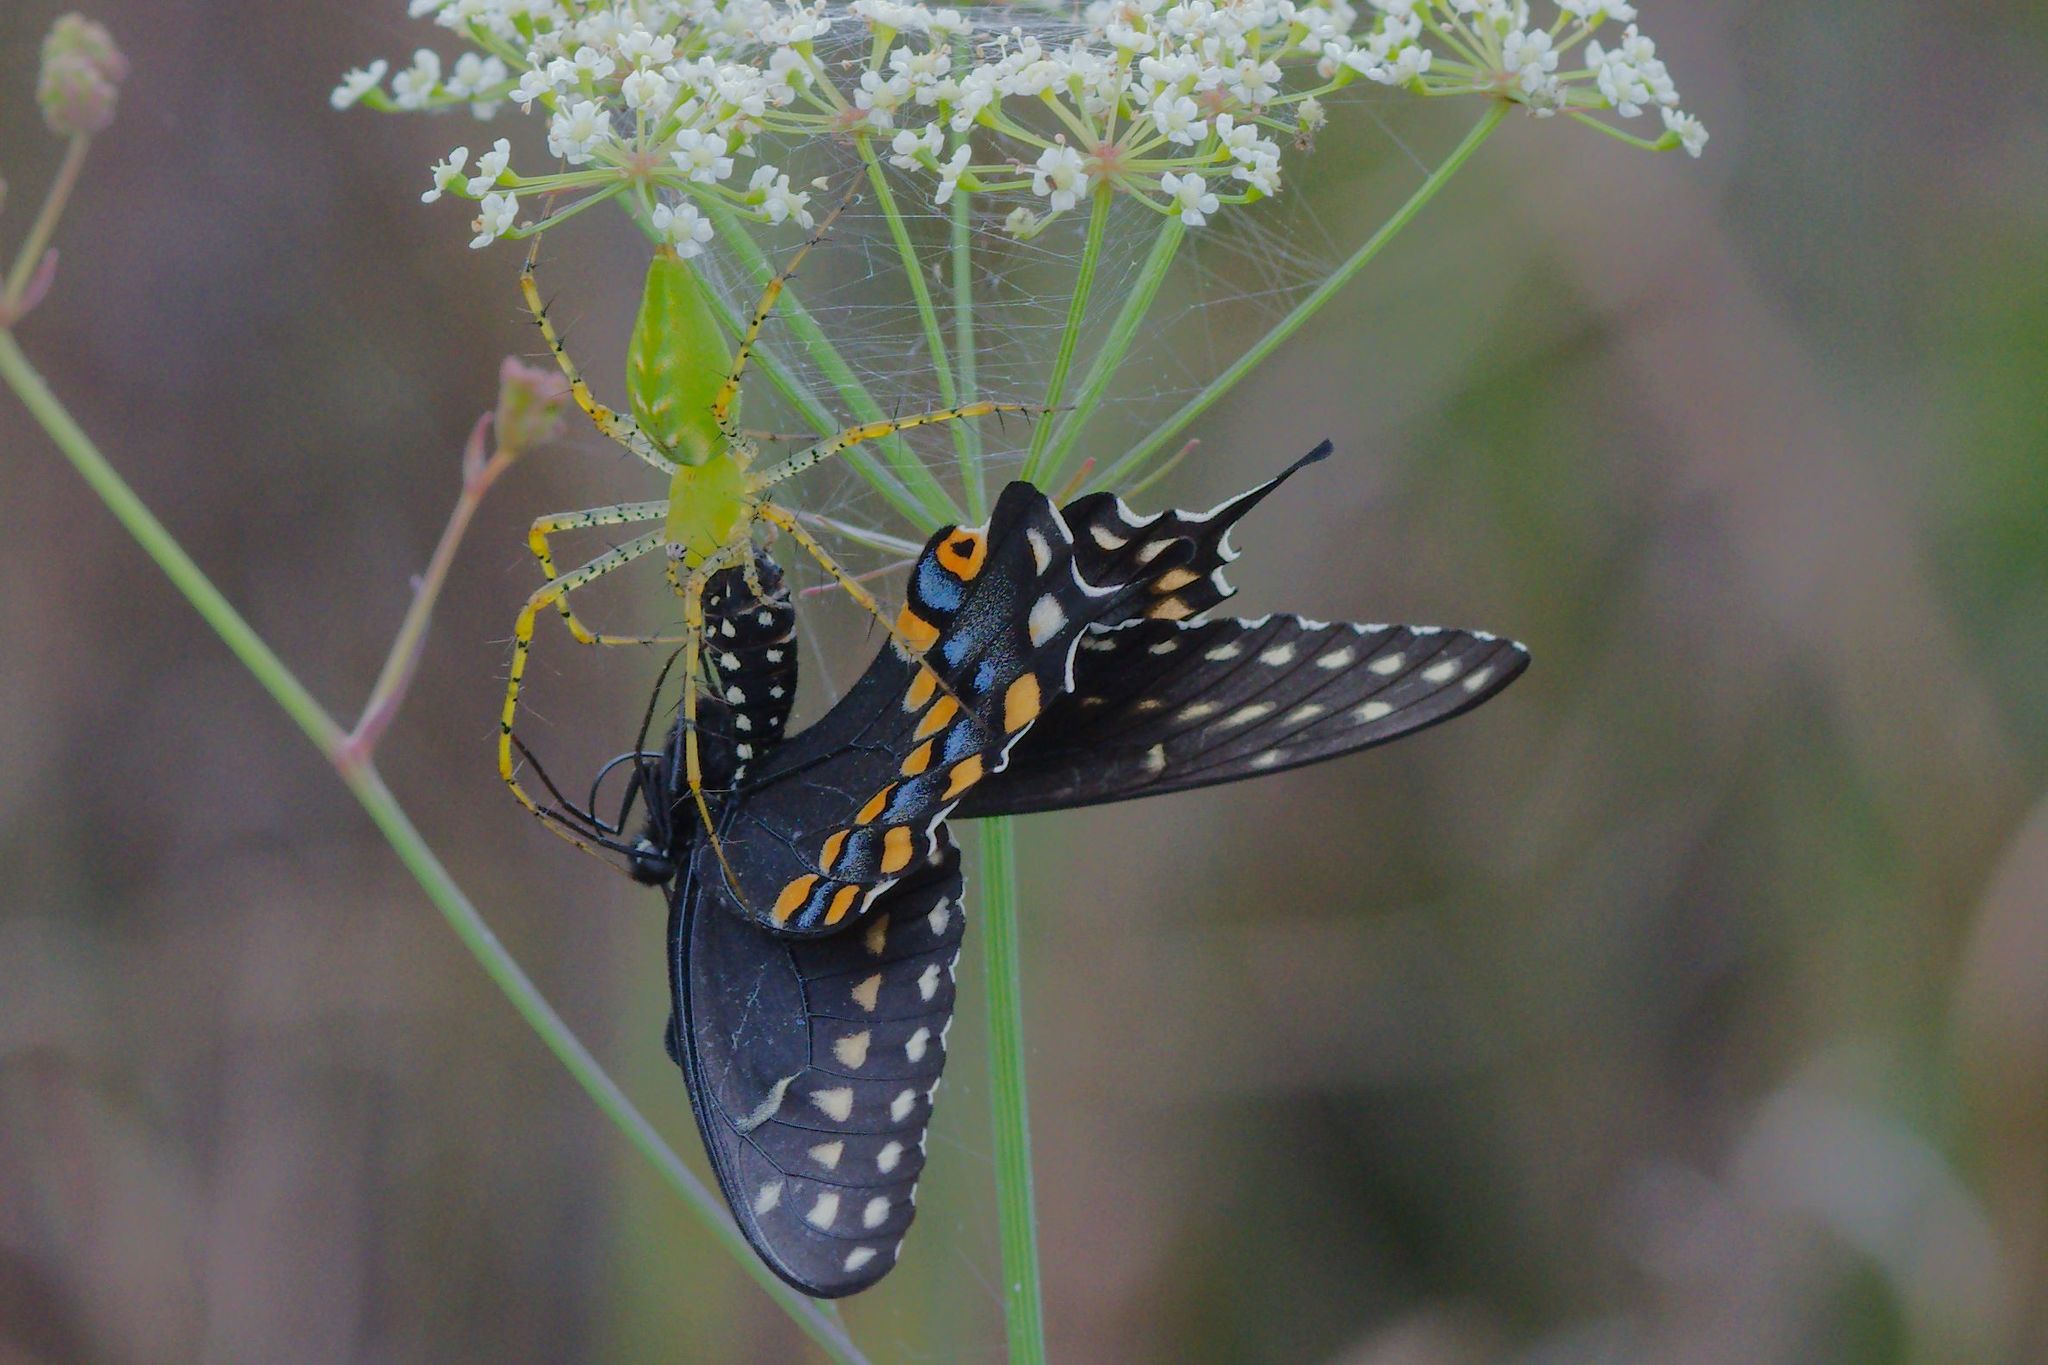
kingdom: Animalia
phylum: Arthropoda
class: Insecta
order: Lepidoptera
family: Papilionidae
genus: Papilio
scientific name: Papilio polyxenes
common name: Black swallowtail
